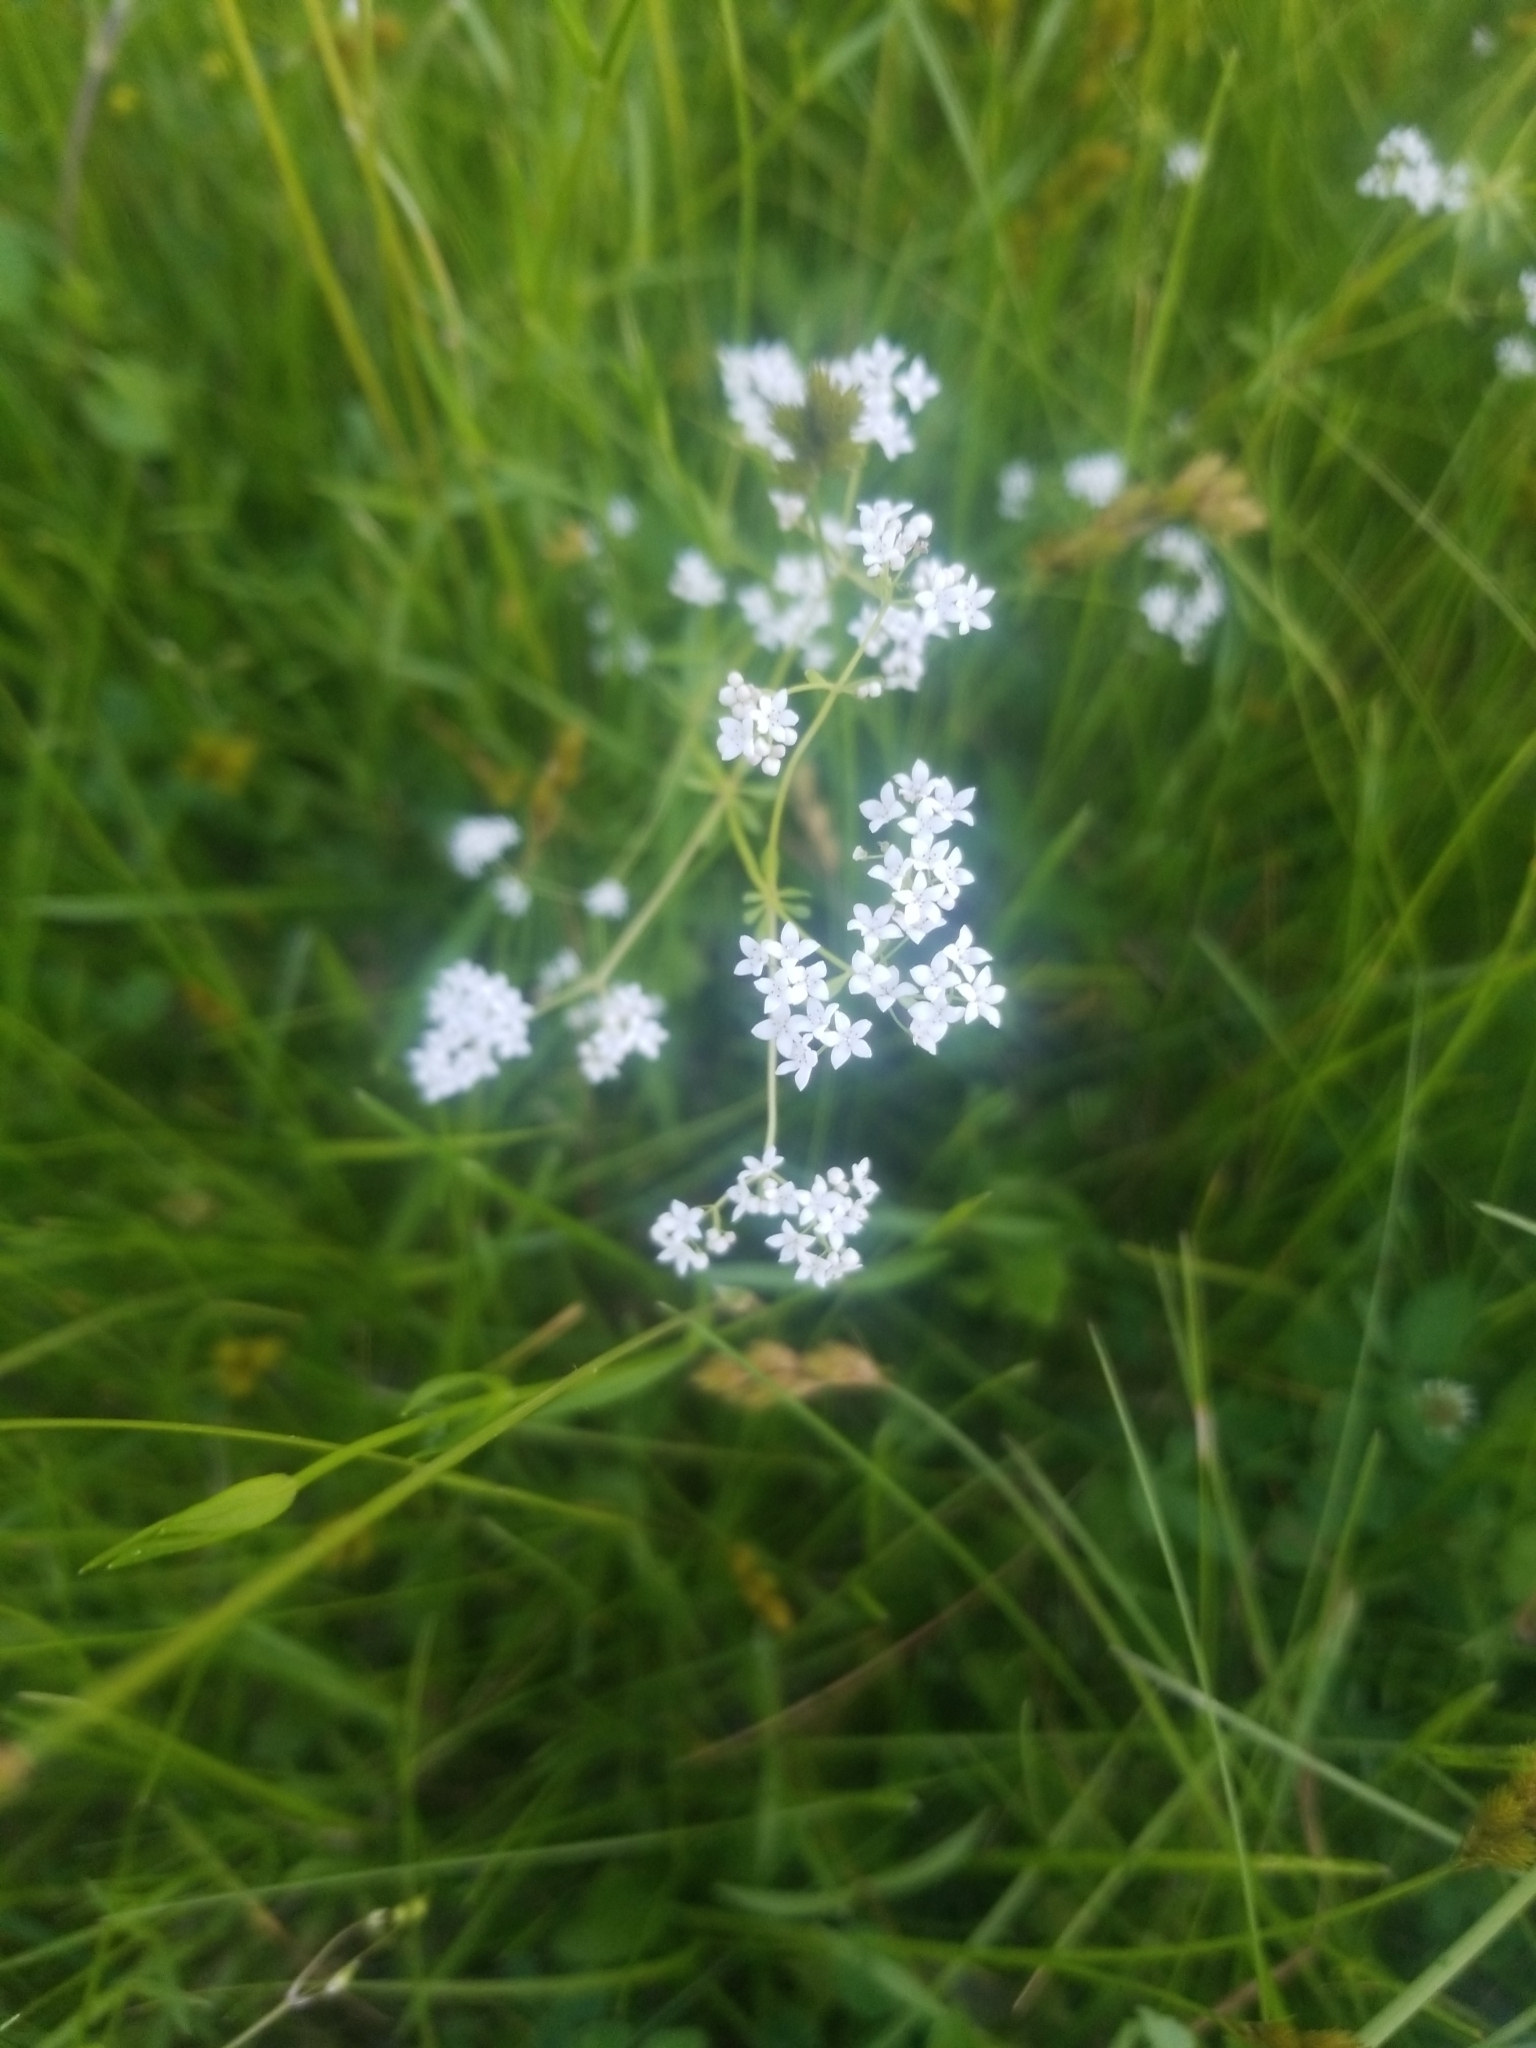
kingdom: Plantae
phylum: Tracheophyta
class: Magnoliopsida
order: Gentianales
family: Rubiaceae
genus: Galium
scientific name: Galium palustre
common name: Common marsh-bedstraw
